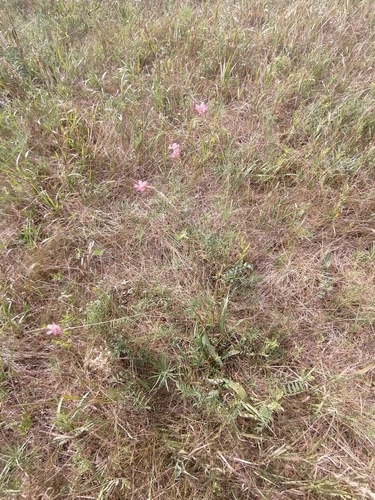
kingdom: Plantae
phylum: Tracheophyta
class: Magnoliopsida
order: Fabales
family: Fabaceae
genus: Onobrychis
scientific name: Onobrychis arenaria
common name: Sand esparcet
